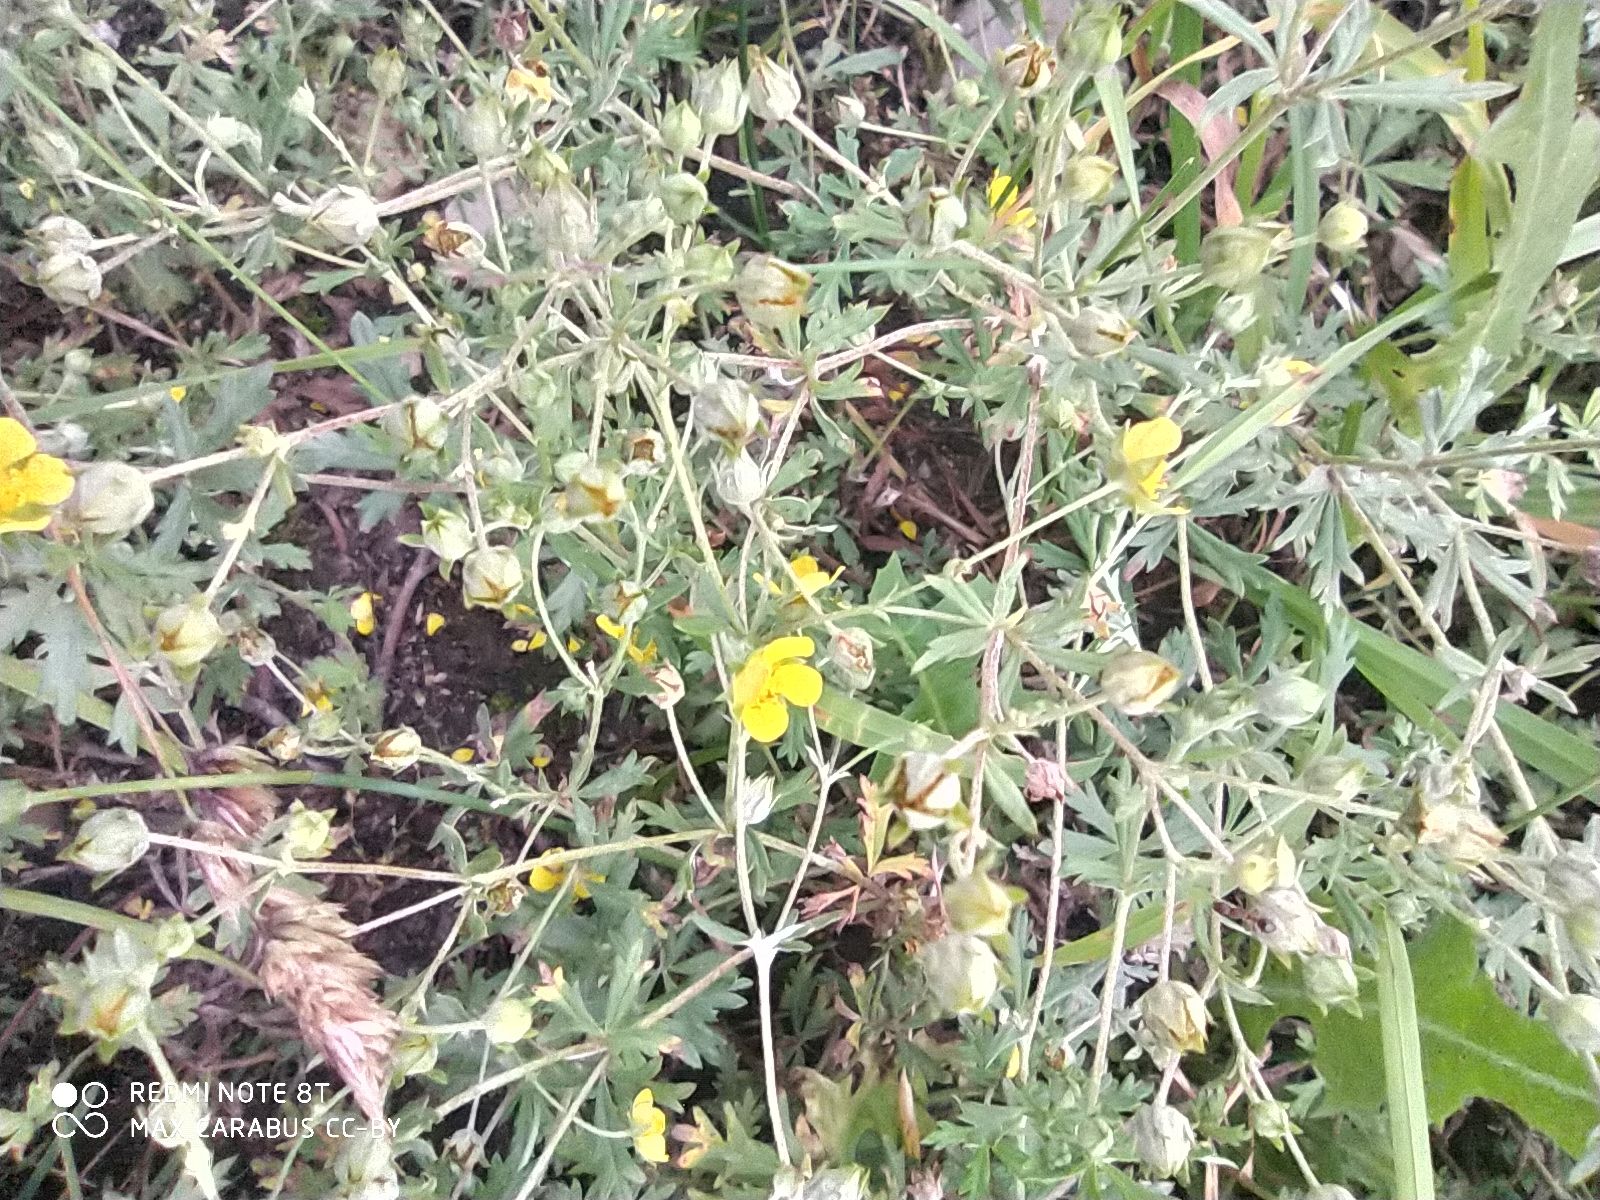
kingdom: Plantae
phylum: Tracheophyta
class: Magnoliopsida
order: Rosales
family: Rosaceae
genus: Potentilla
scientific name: Potentilla argentea
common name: Hoary cinquefoil
